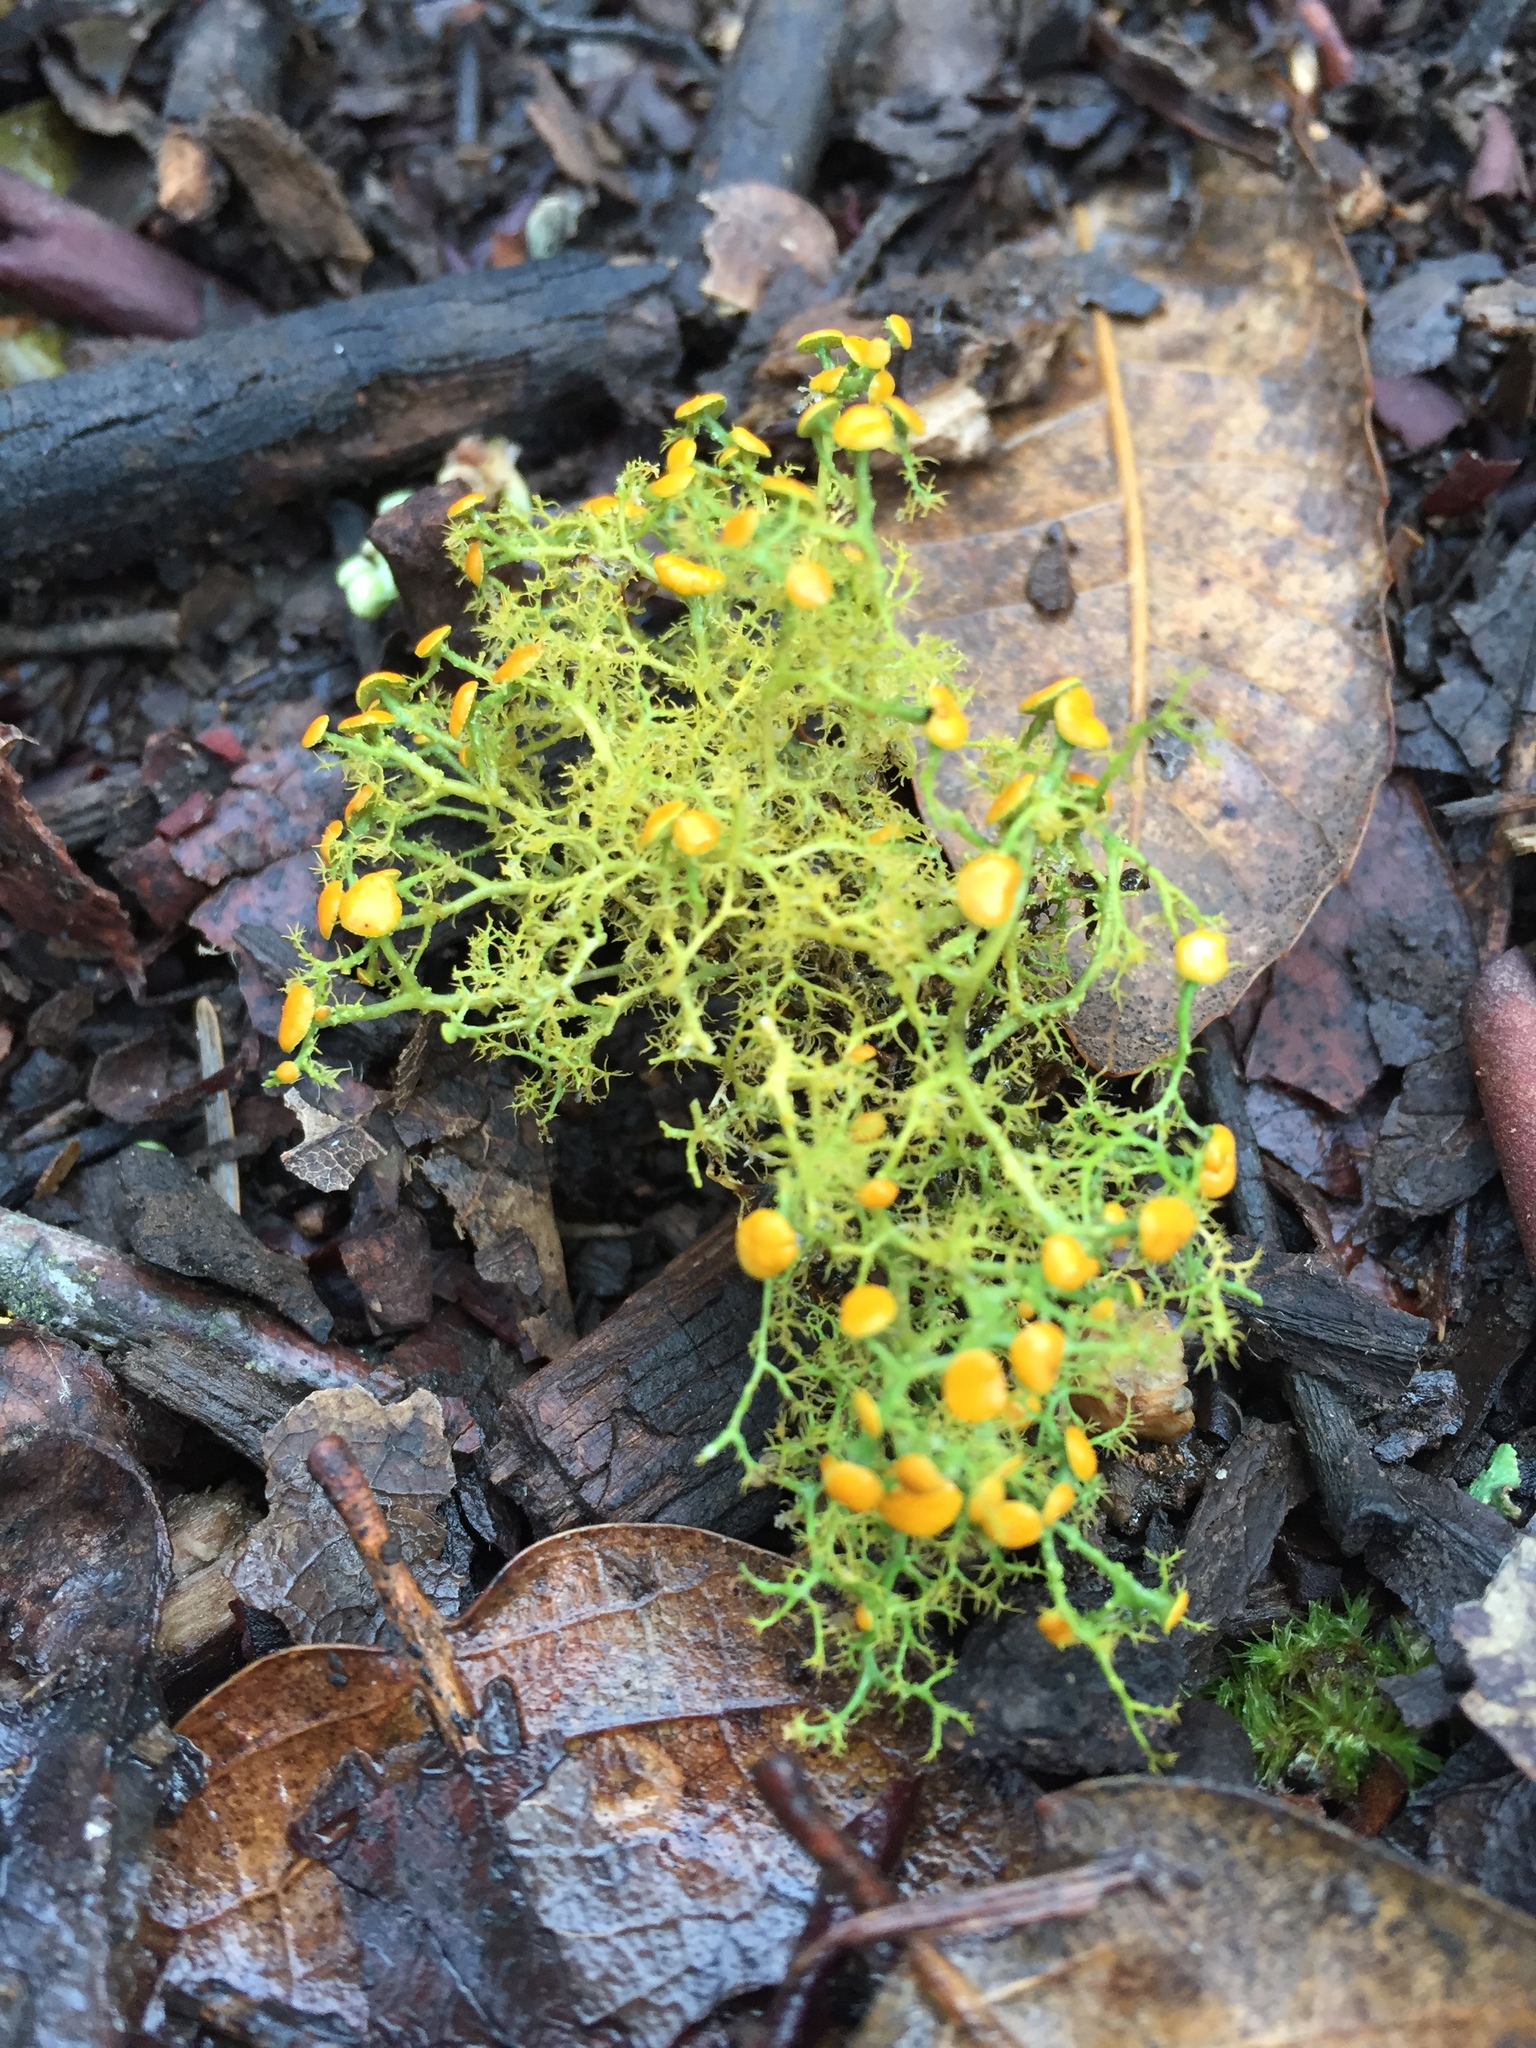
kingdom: Fungi
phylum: Ascomycota
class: Lecanoromycetes
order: Teloschistales
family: Teloschistaceae
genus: Teloschistes
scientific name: Teloschistes flavicans
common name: Golden hair-lichen
